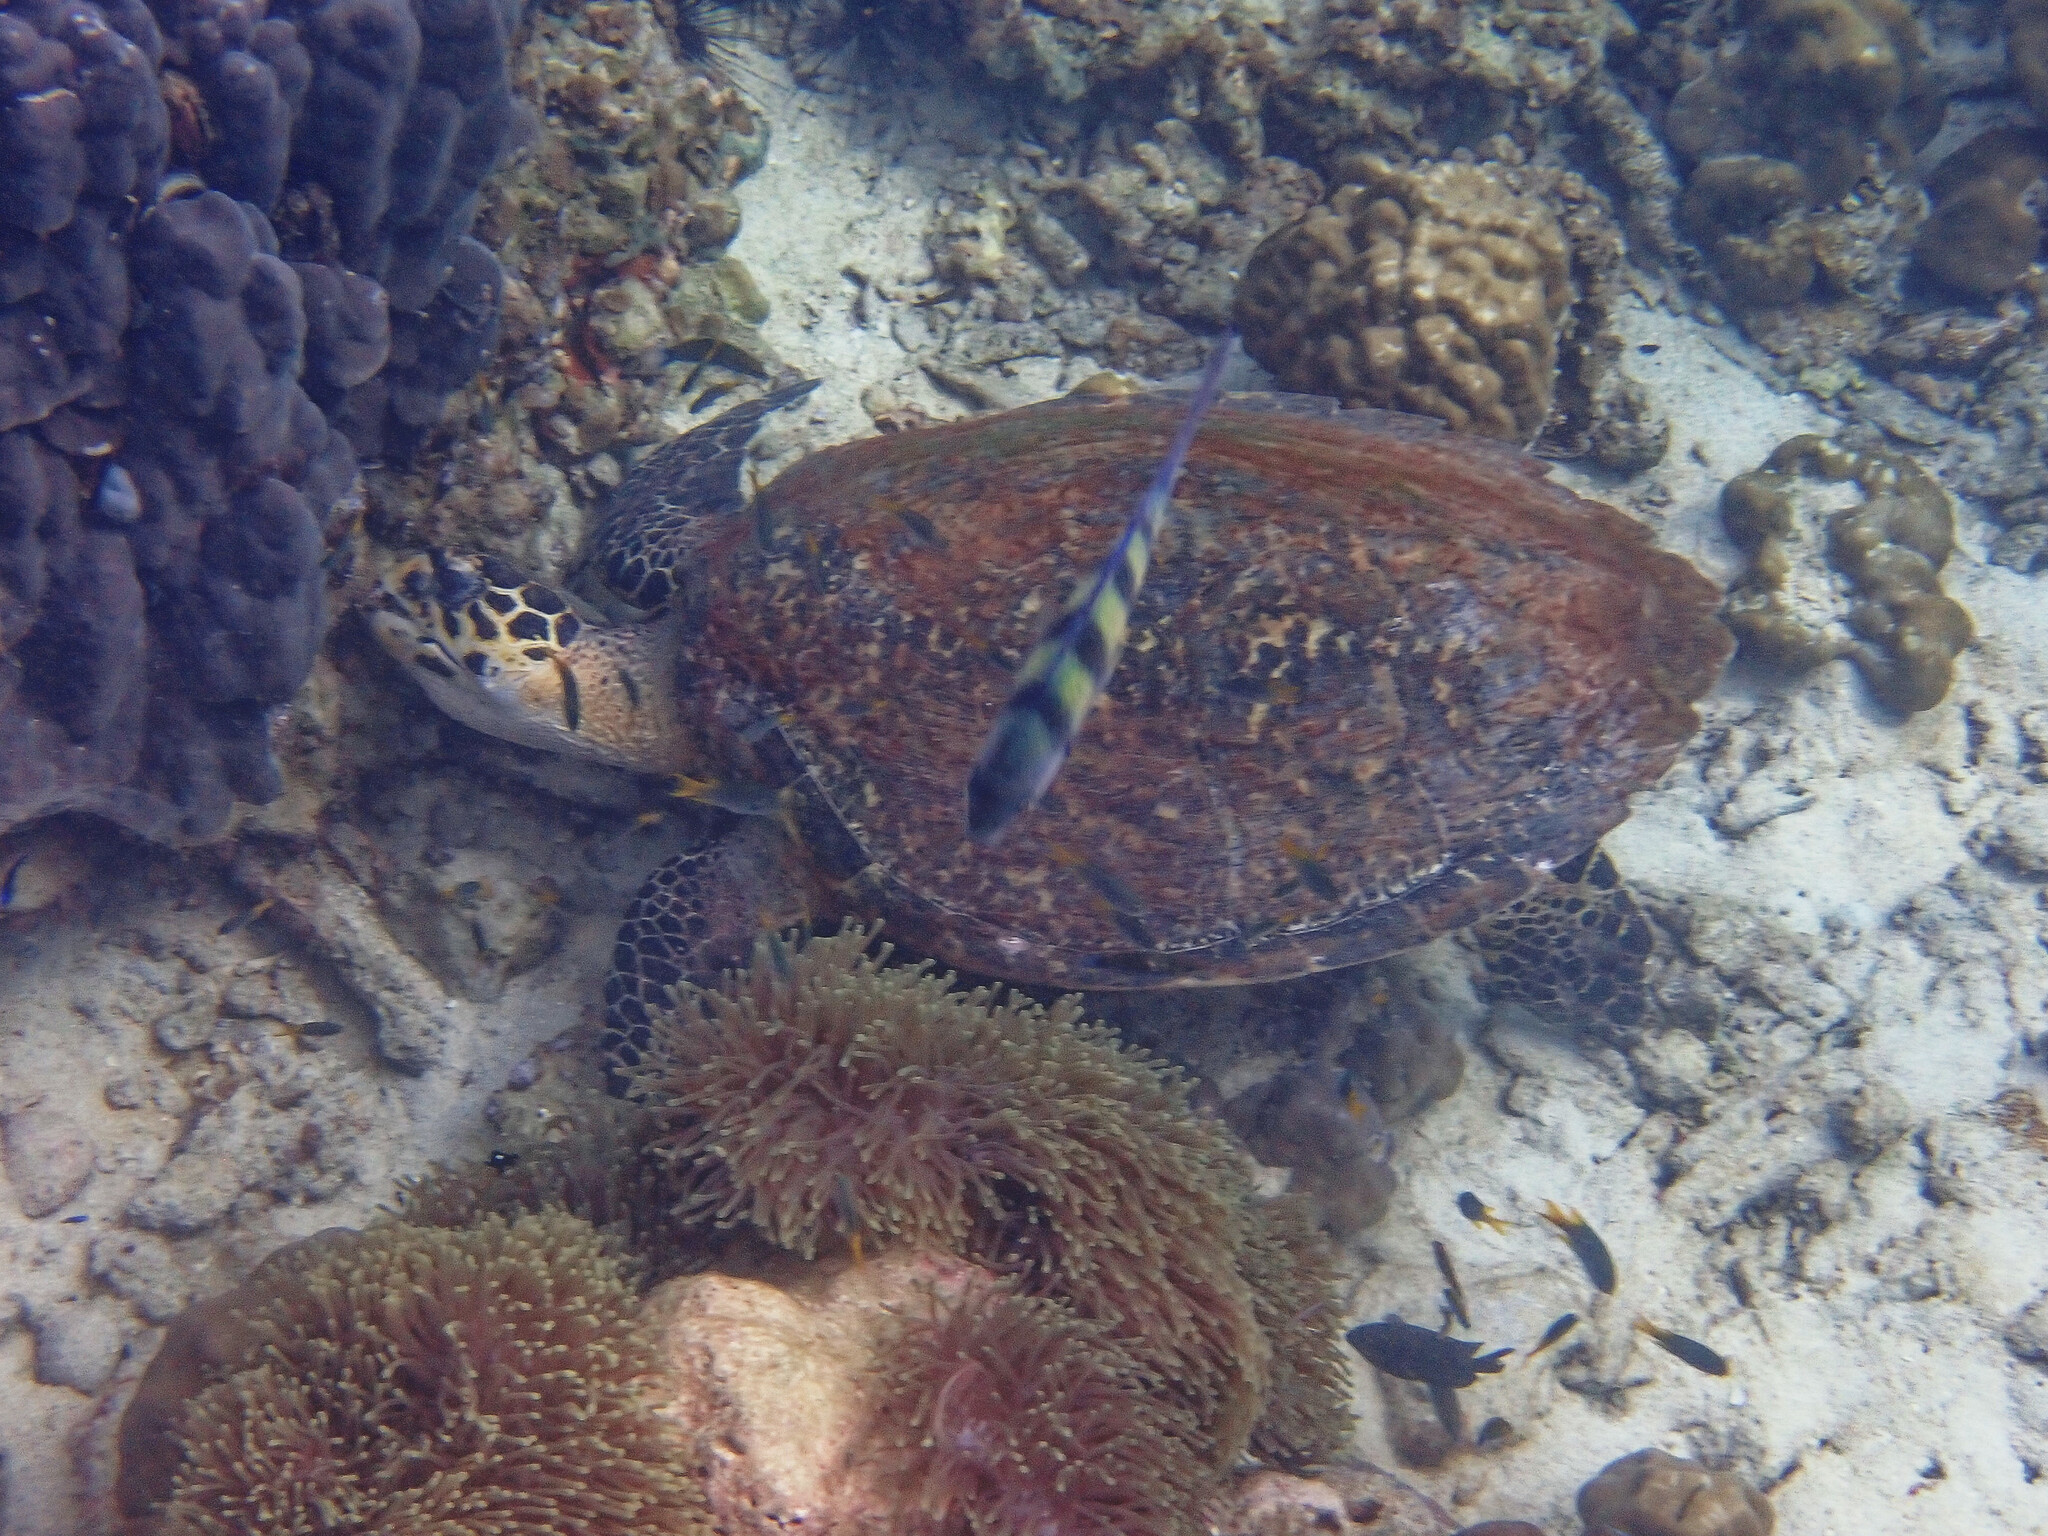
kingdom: Animalia
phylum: Chordata
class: Testudines
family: Cheloniidae
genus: Eretmochelys
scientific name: Eretmochelys imbricata
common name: Hawksbill turtle
